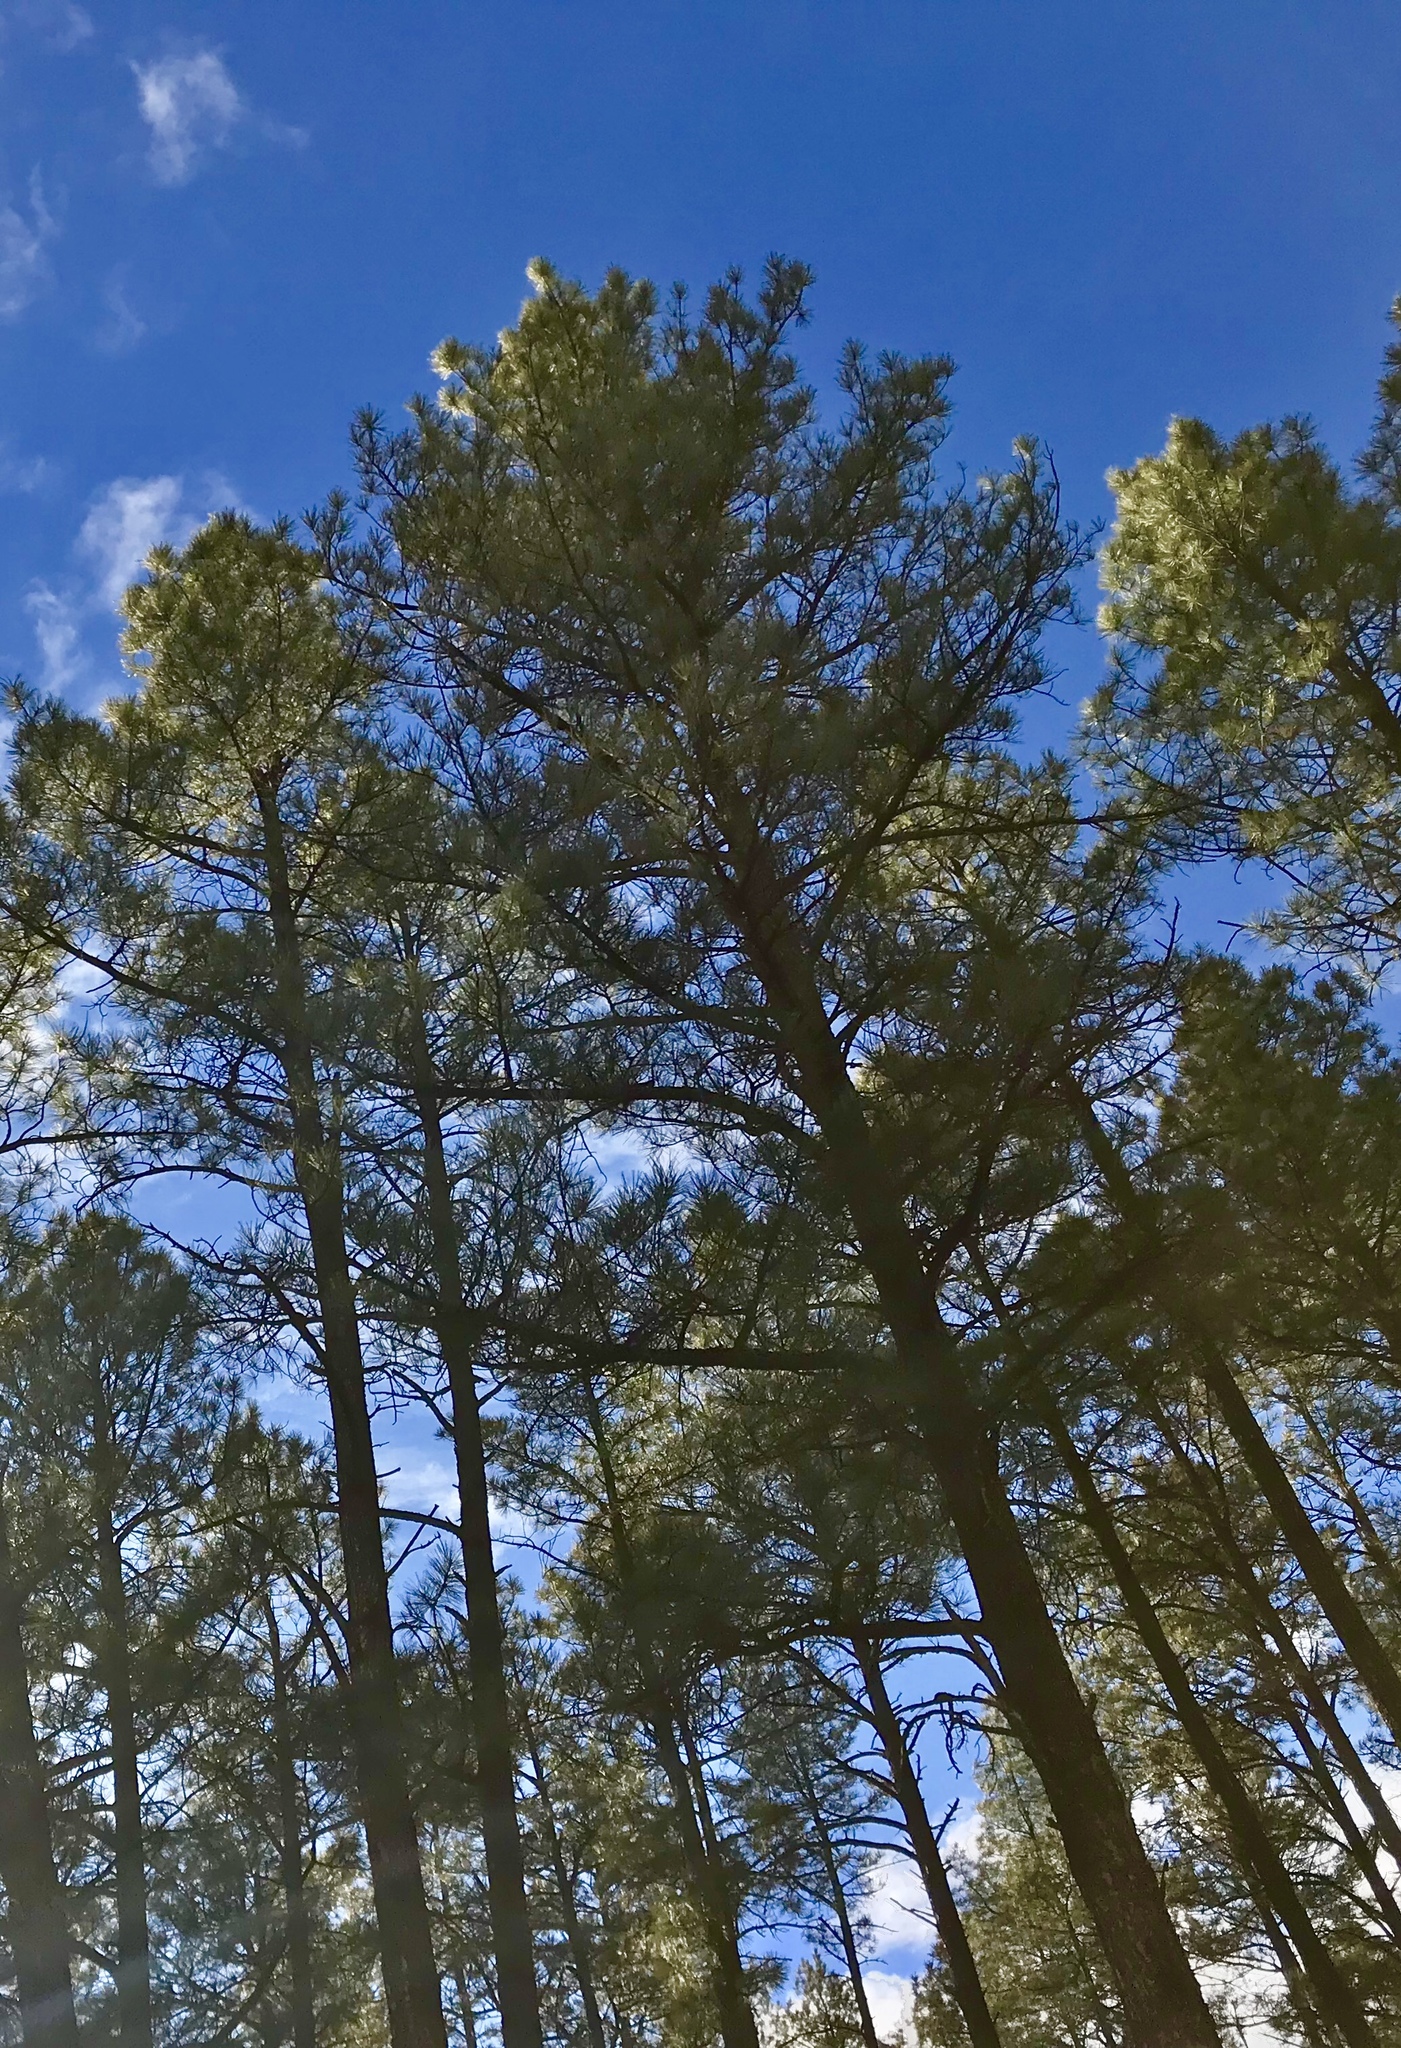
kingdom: Plantae
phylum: Tracheophyta
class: Pinopsida
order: Pinales
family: Pinaceae
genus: Pinus
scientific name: Pinus ponderosa
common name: Western yellow-pine
